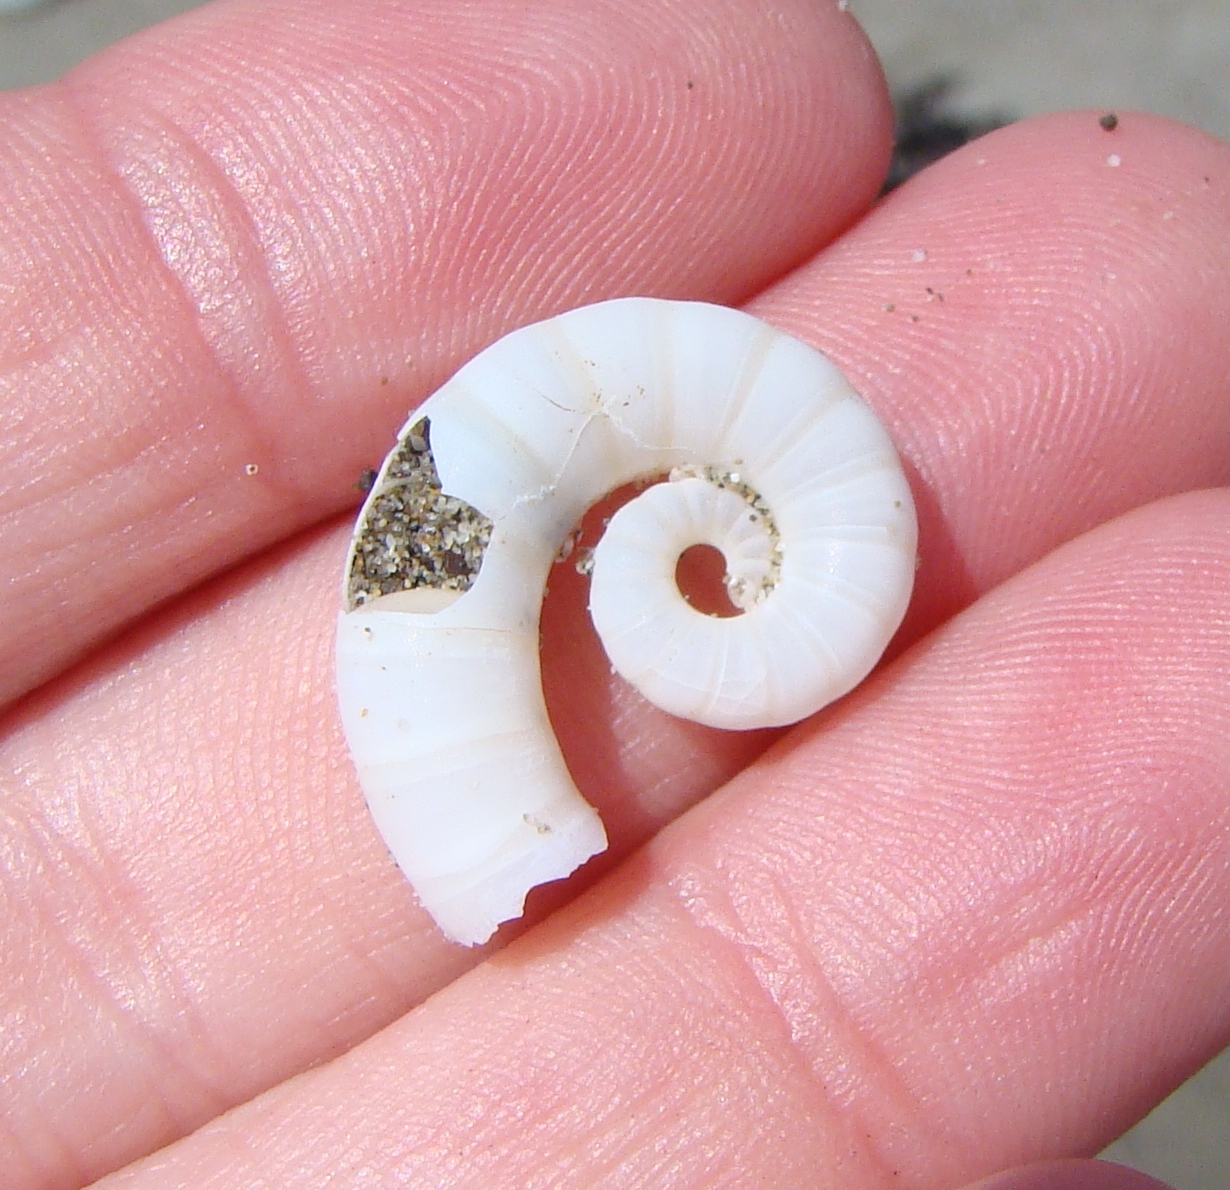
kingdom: Animalia
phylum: Mollusca
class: Cephalopoda
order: Spirulida
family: Spirulidae
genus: Spirula
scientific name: Spirula spirula
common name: Ram's horn squid
